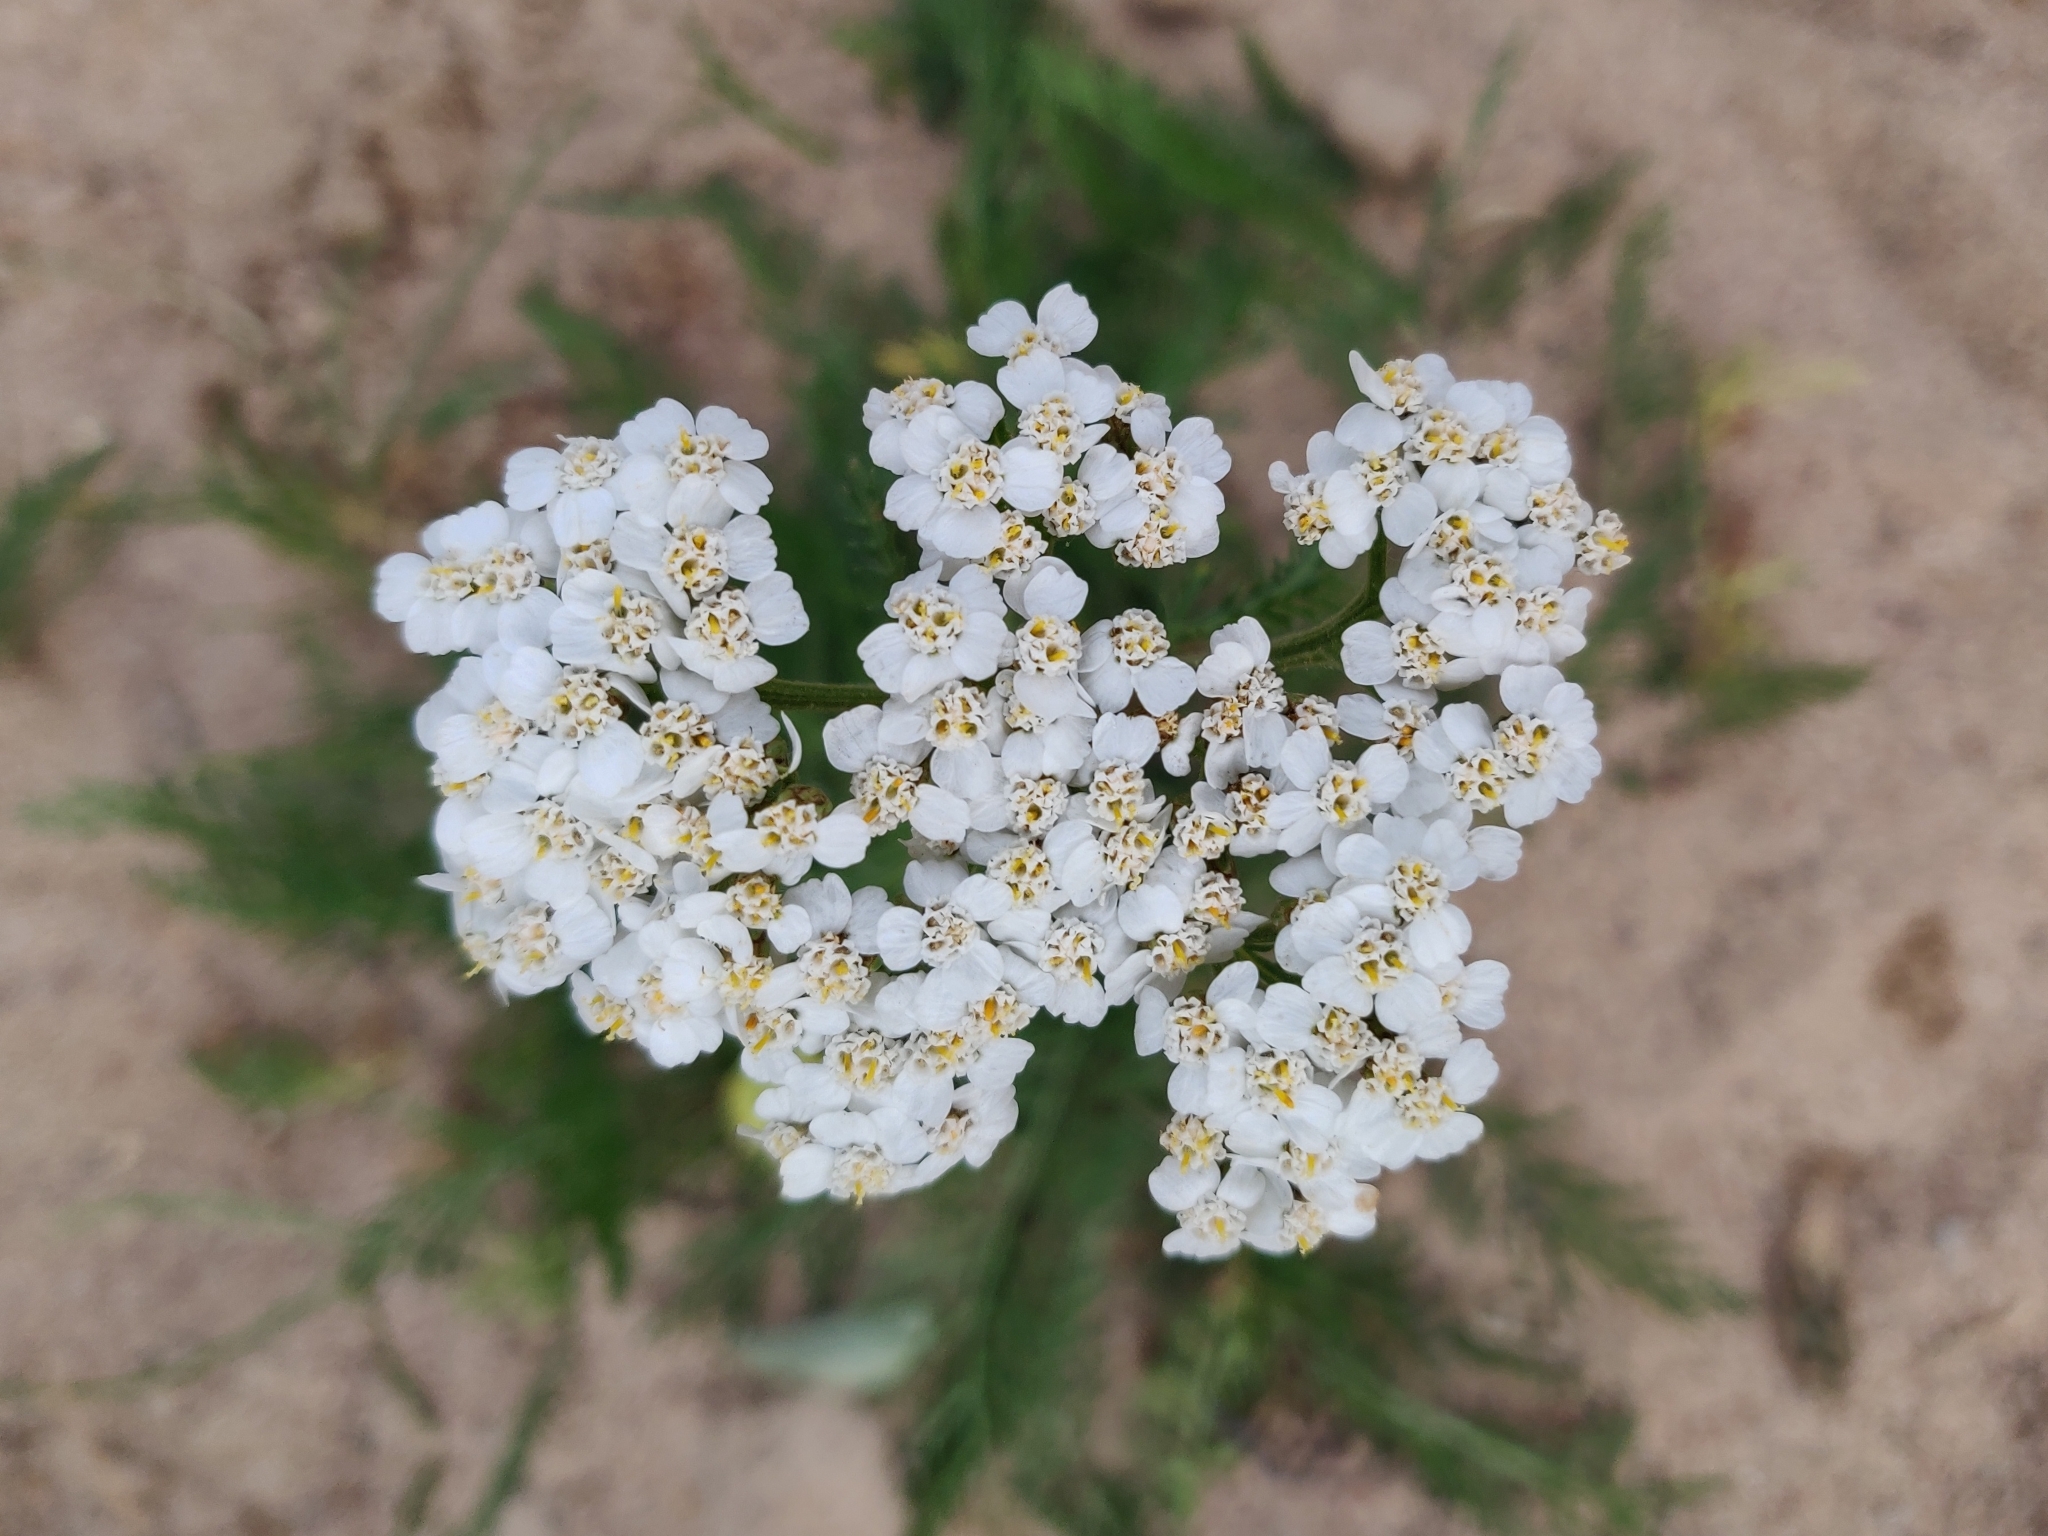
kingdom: Plantae
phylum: Tracheophyta
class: Magnoliopsida
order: Asterales
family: Asteraceae
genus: Achillea
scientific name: Achillea millefolium
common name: Yarrow
